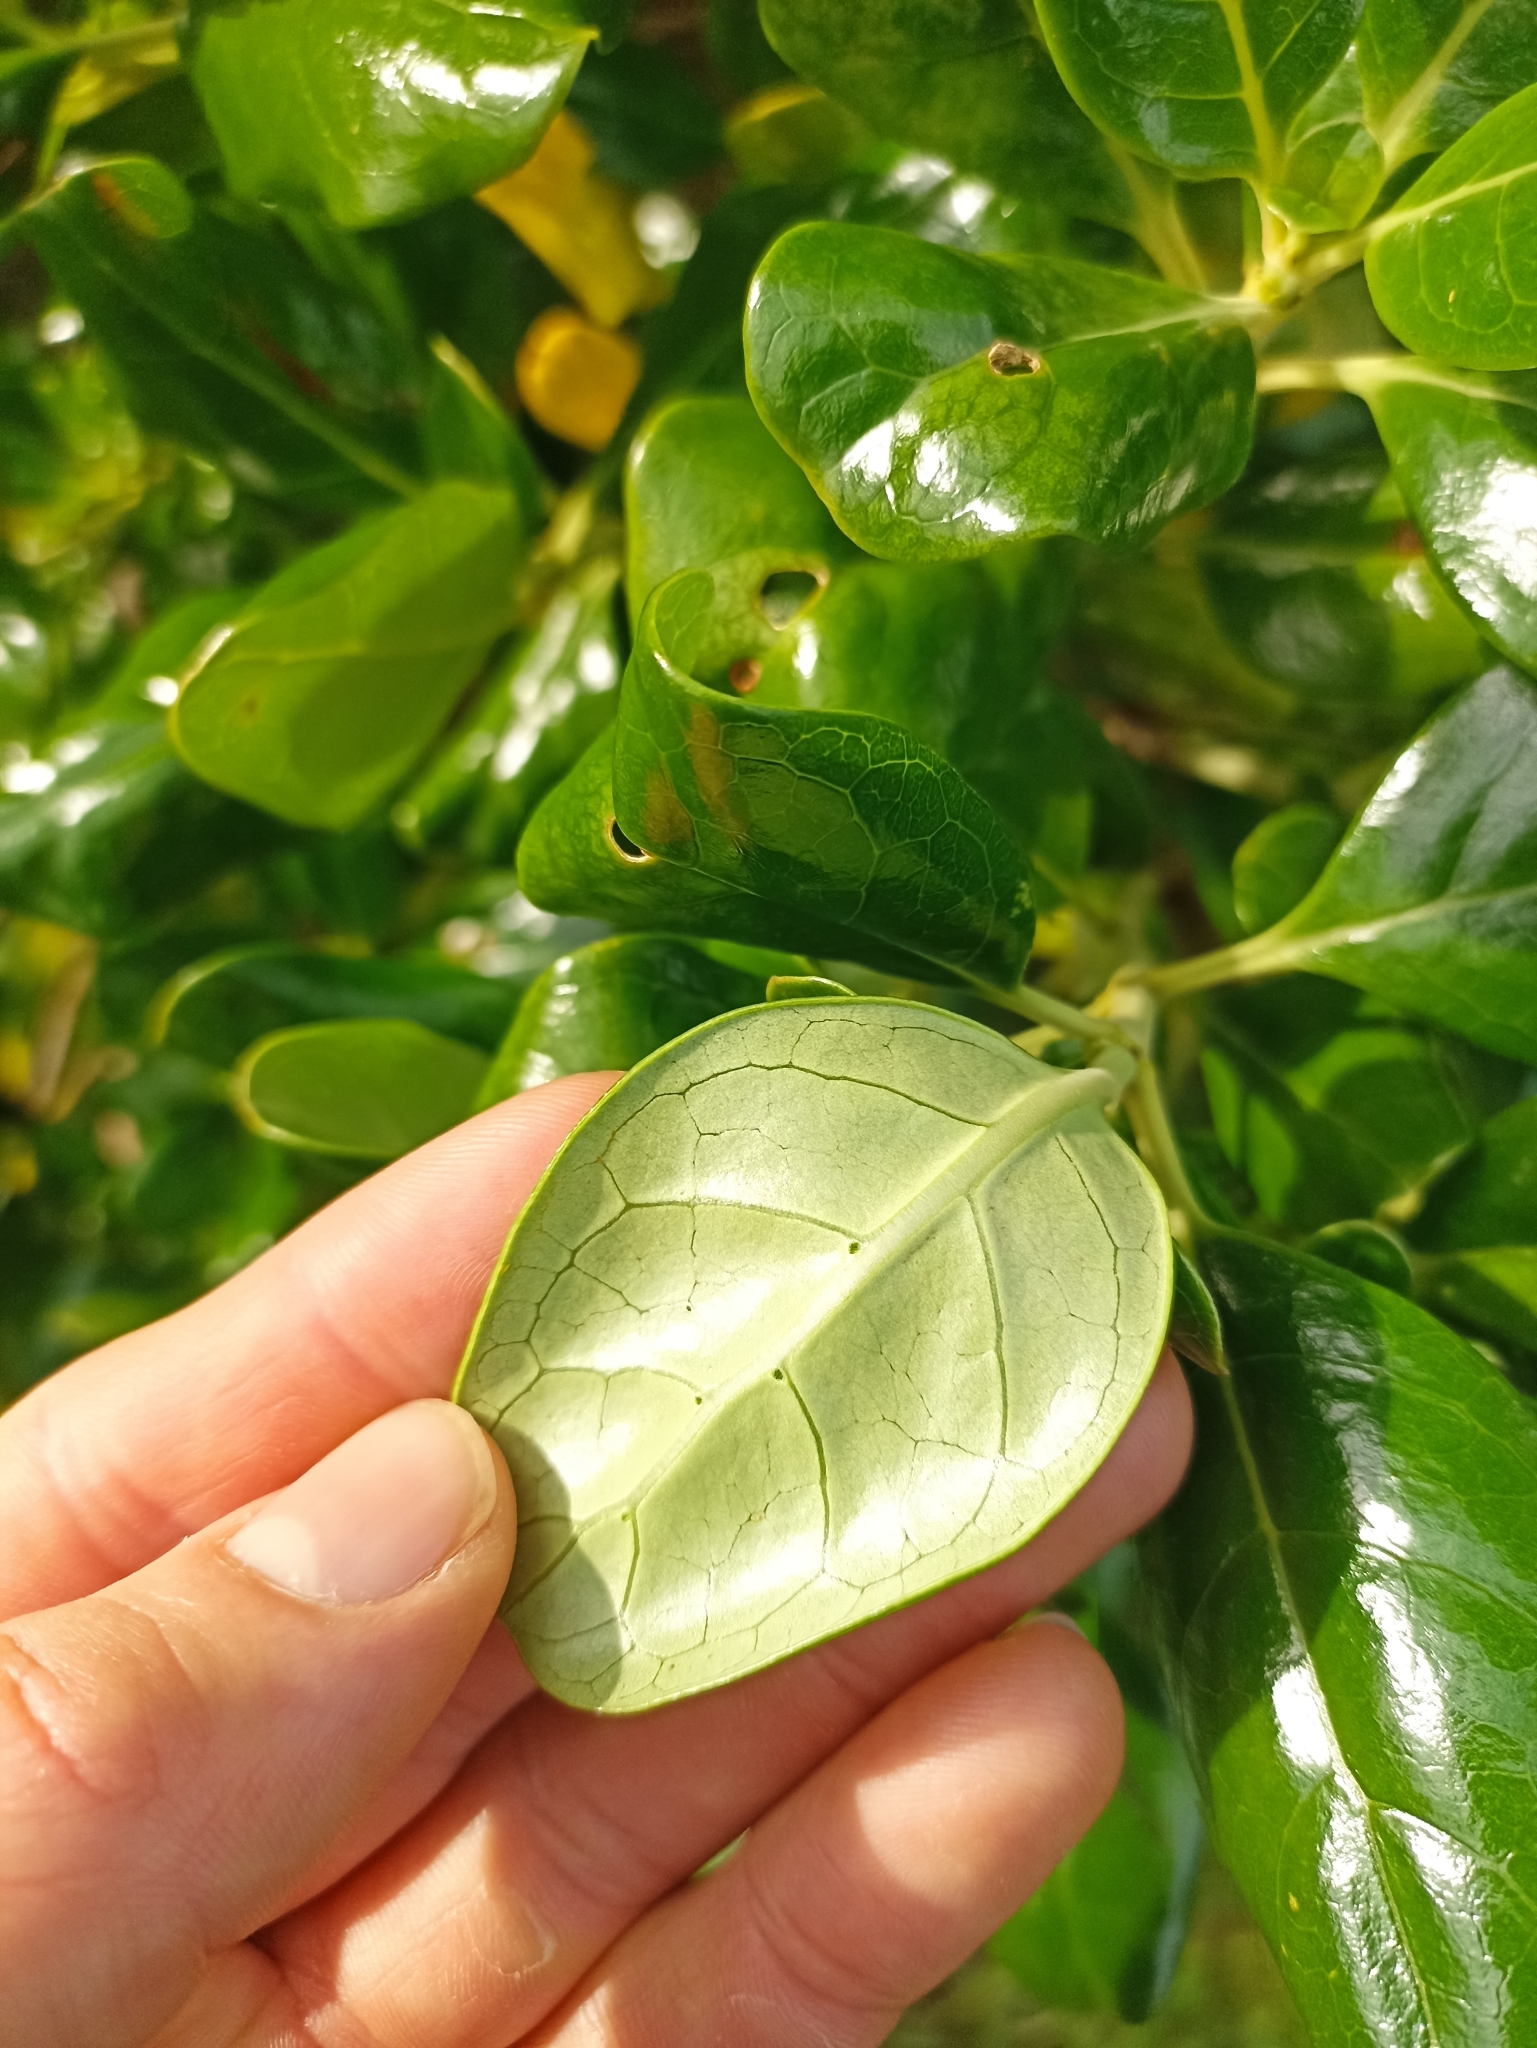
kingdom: Plantae
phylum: Tracheophyta
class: Magnoliopsida
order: Gentianales
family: Rubiaceae
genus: Coprosma
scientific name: Coprosma repens
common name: Tree bedstraw
